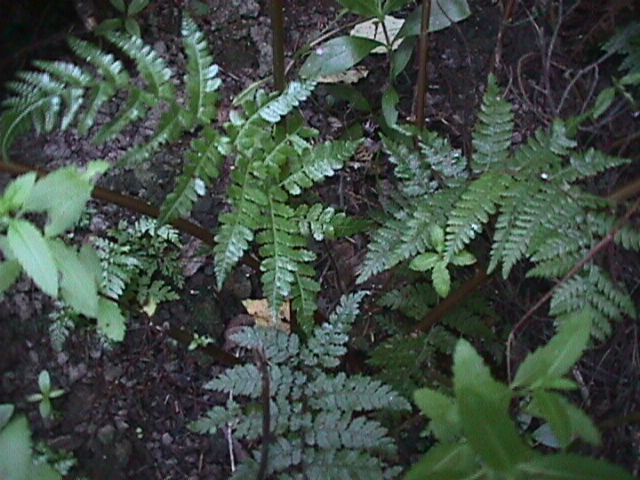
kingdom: Plantae
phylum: Tracheophyta
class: Polypodiopsida
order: Cyatheales
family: Cyatheaceae
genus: Cyathea
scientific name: Cyathea
